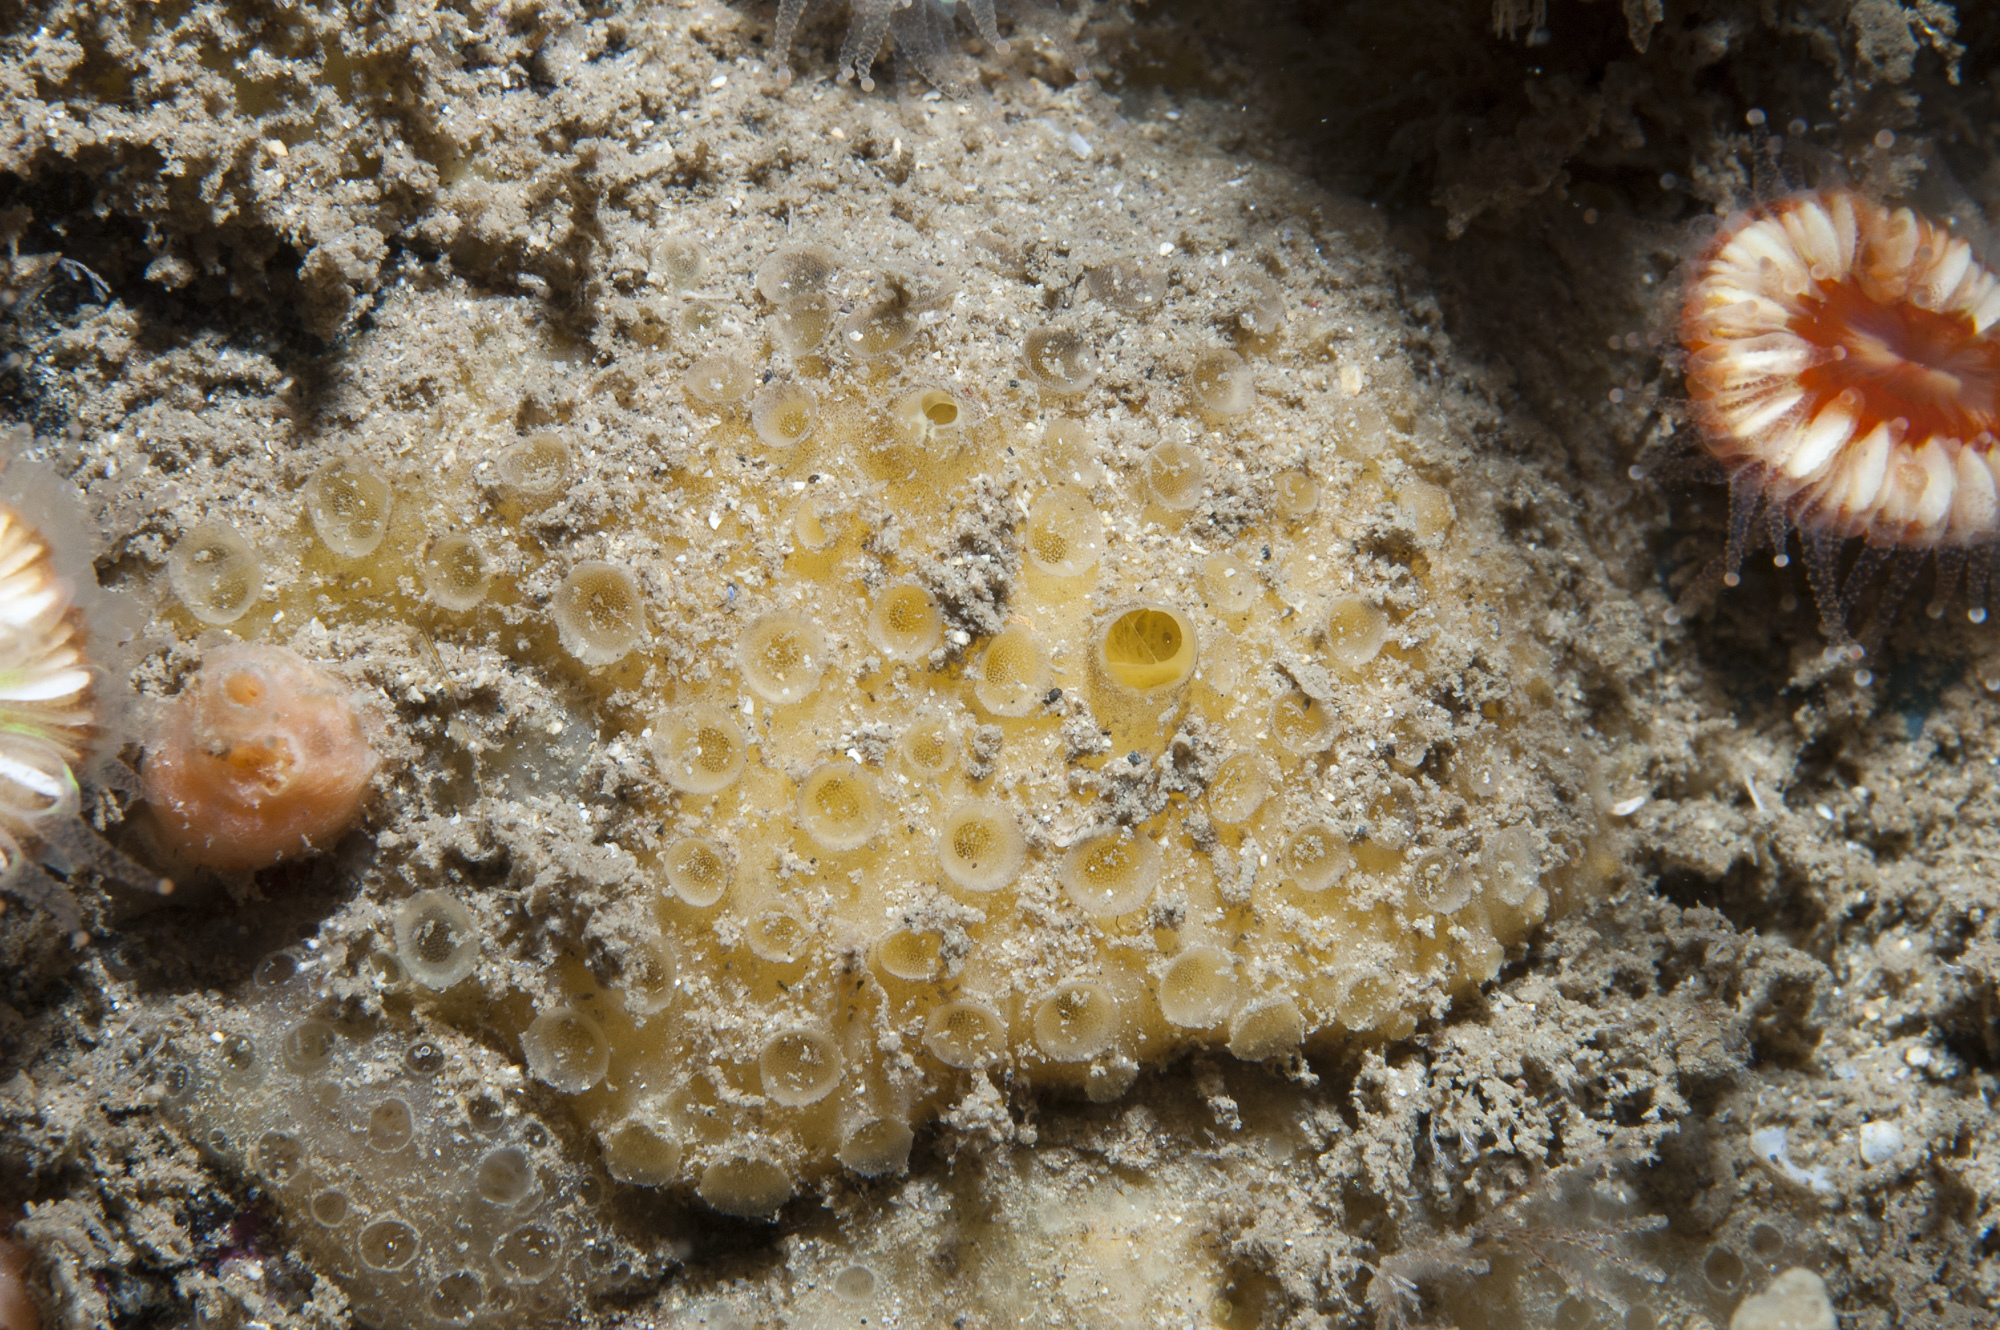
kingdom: Animalia
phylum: Porifera
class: Demospongiae
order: Poecilosclerida
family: Coelosphaeridae
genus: Lissodendoryx
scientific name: Lissodendoryx jenjonesae
